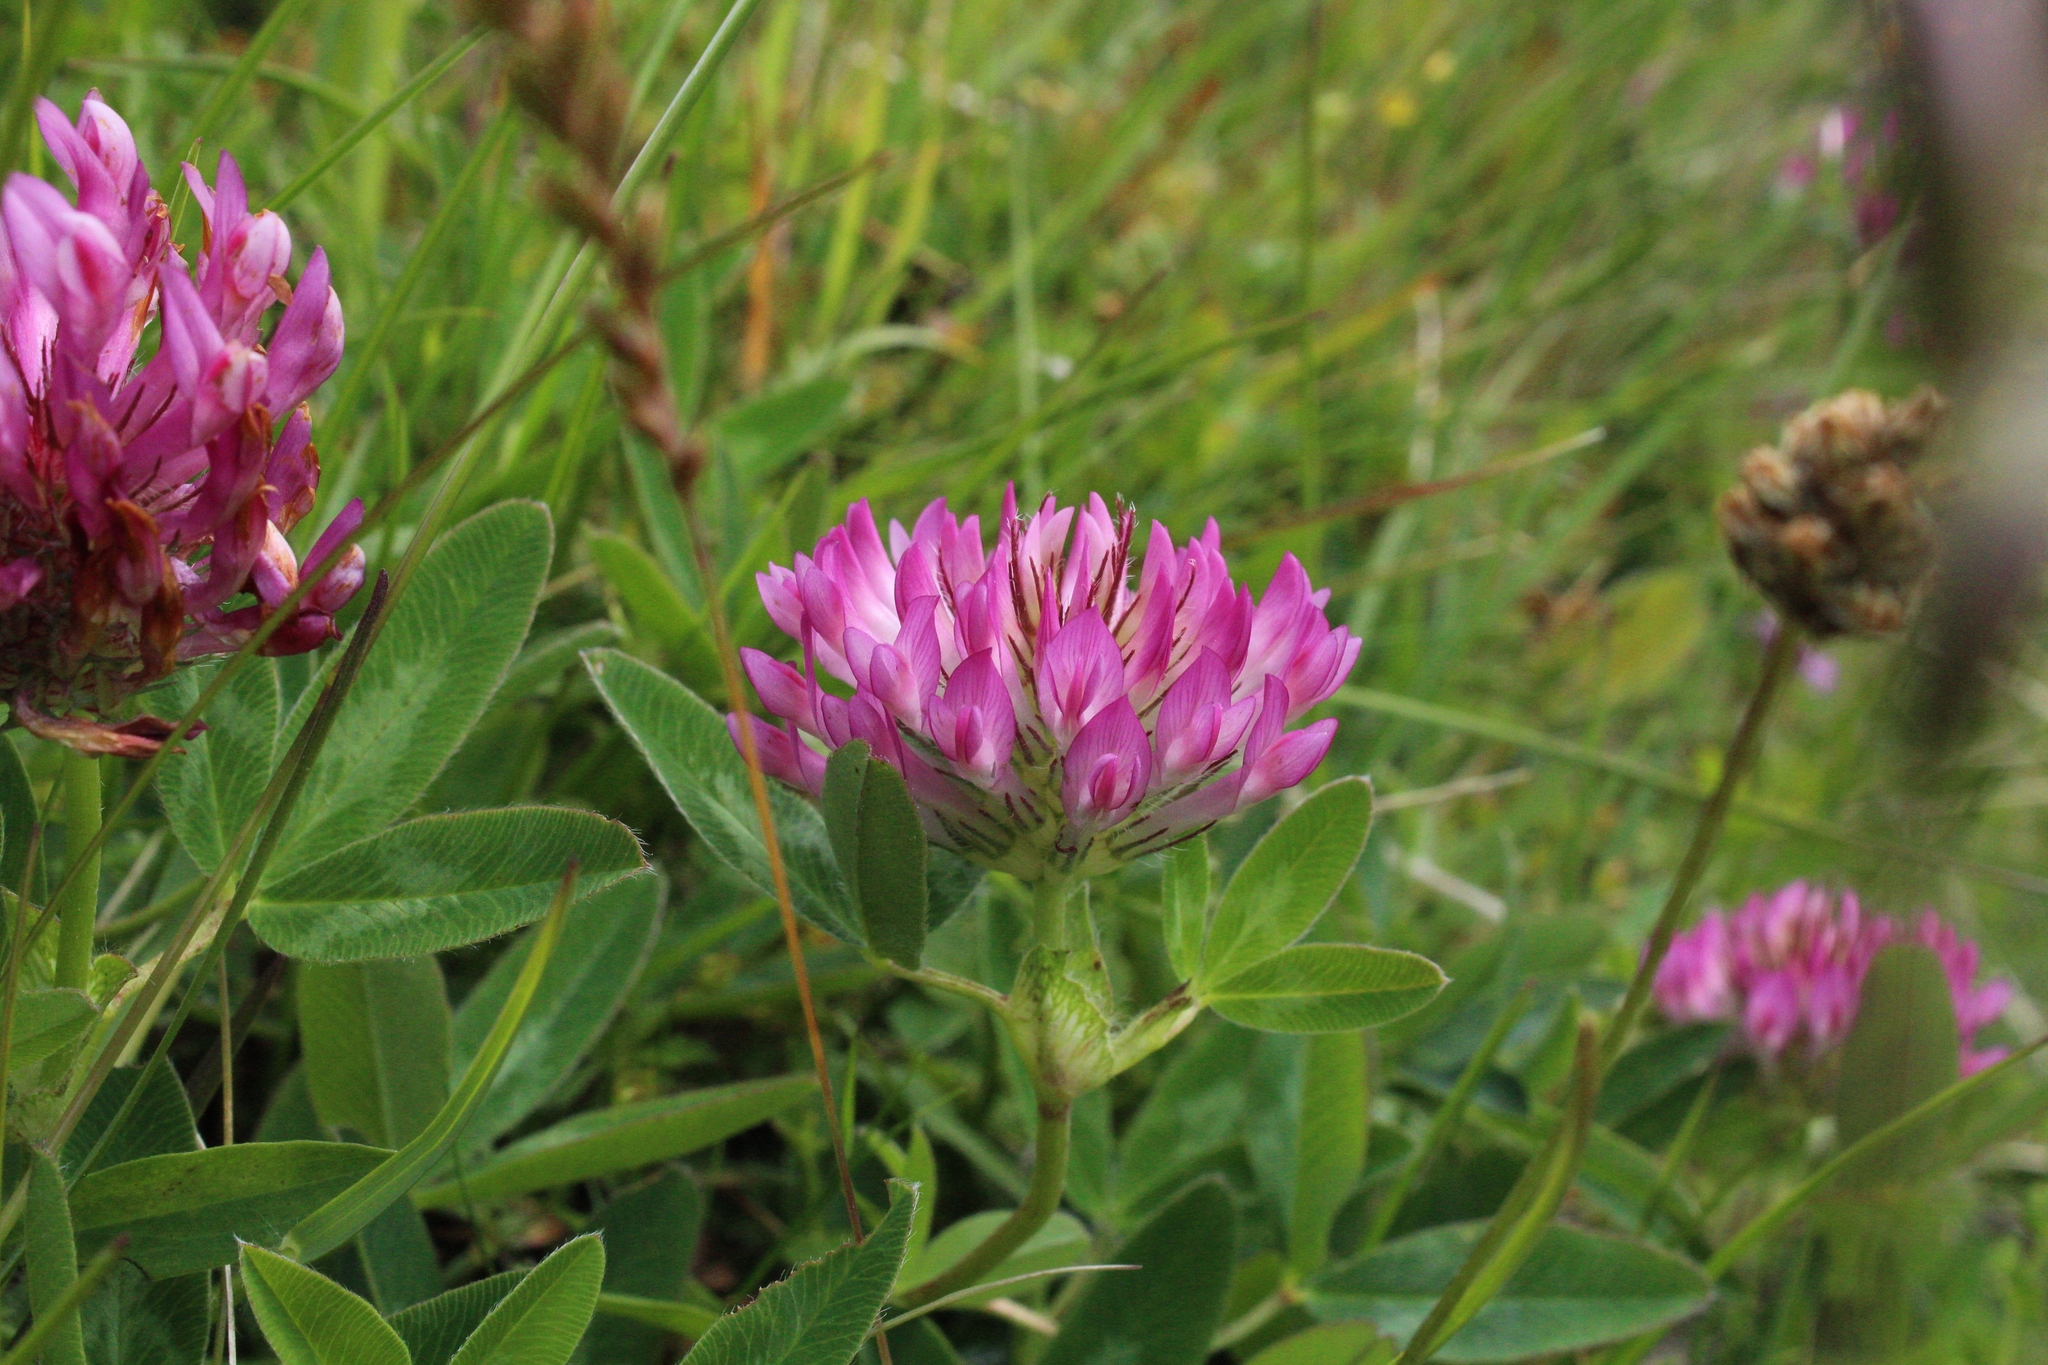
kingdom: Plantae
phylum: Tracheophyta
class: Magnoliopsida
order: Fabales
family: Fabaceae
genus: Trifolium
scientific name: Trifolium medium
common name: Zigzag clover
